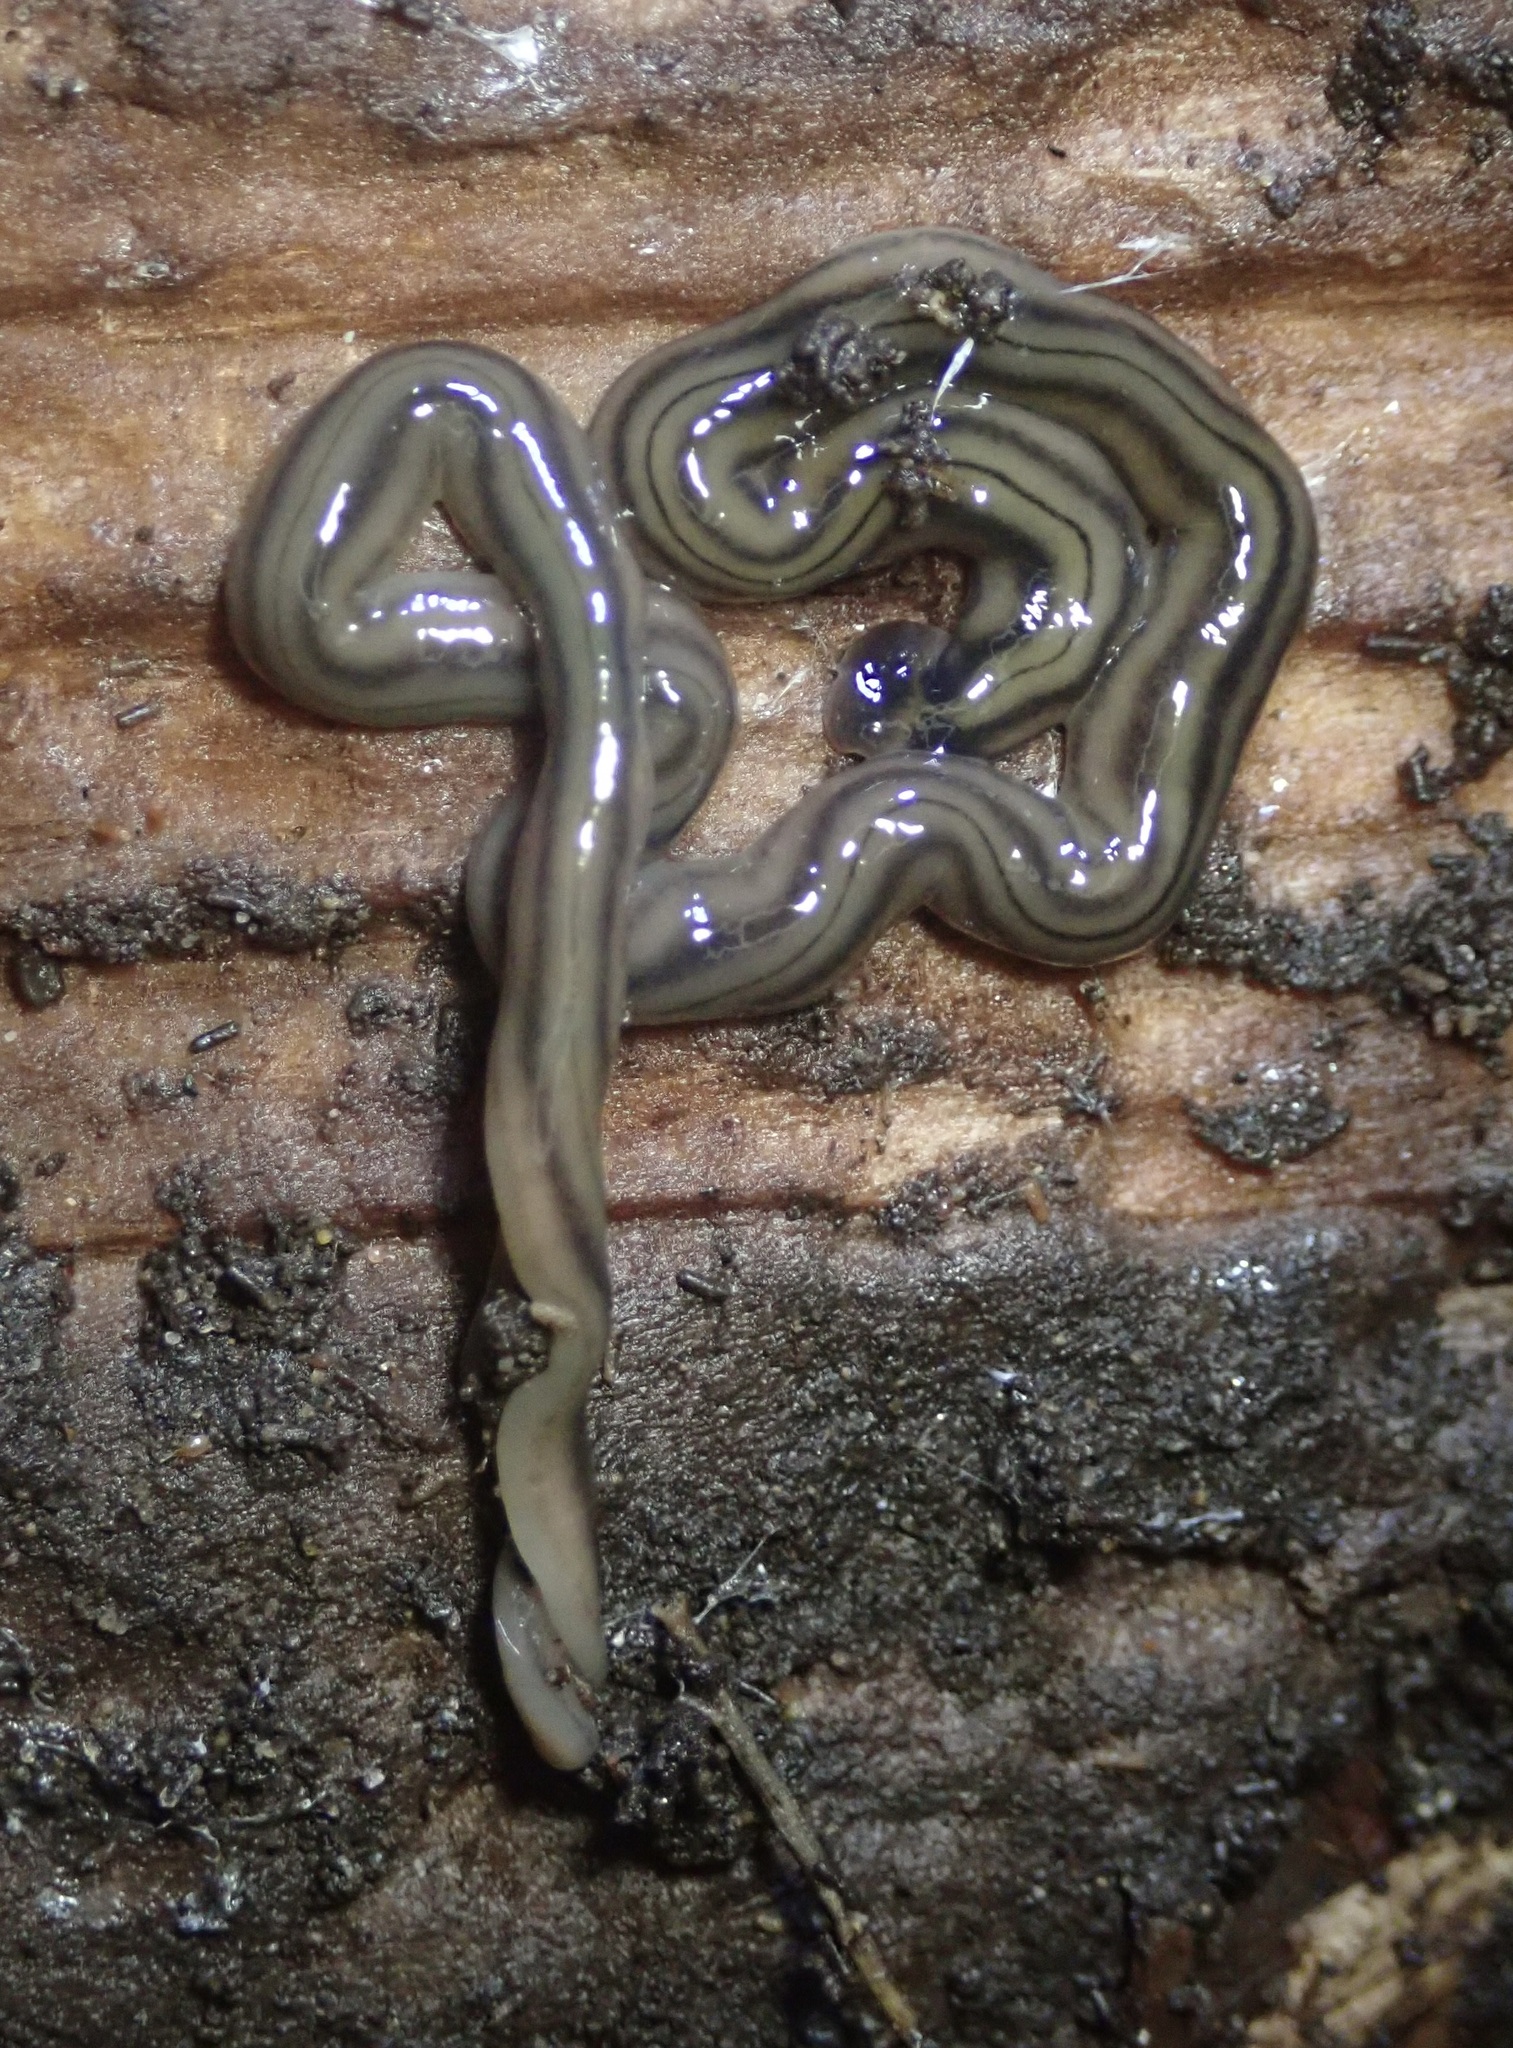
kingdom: Animalia
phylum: Platyhelminthes
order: Tricladida
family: Geoplanidae
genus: Bipalium
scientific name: Bipalium kewense
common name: Hammerhead flatworm
